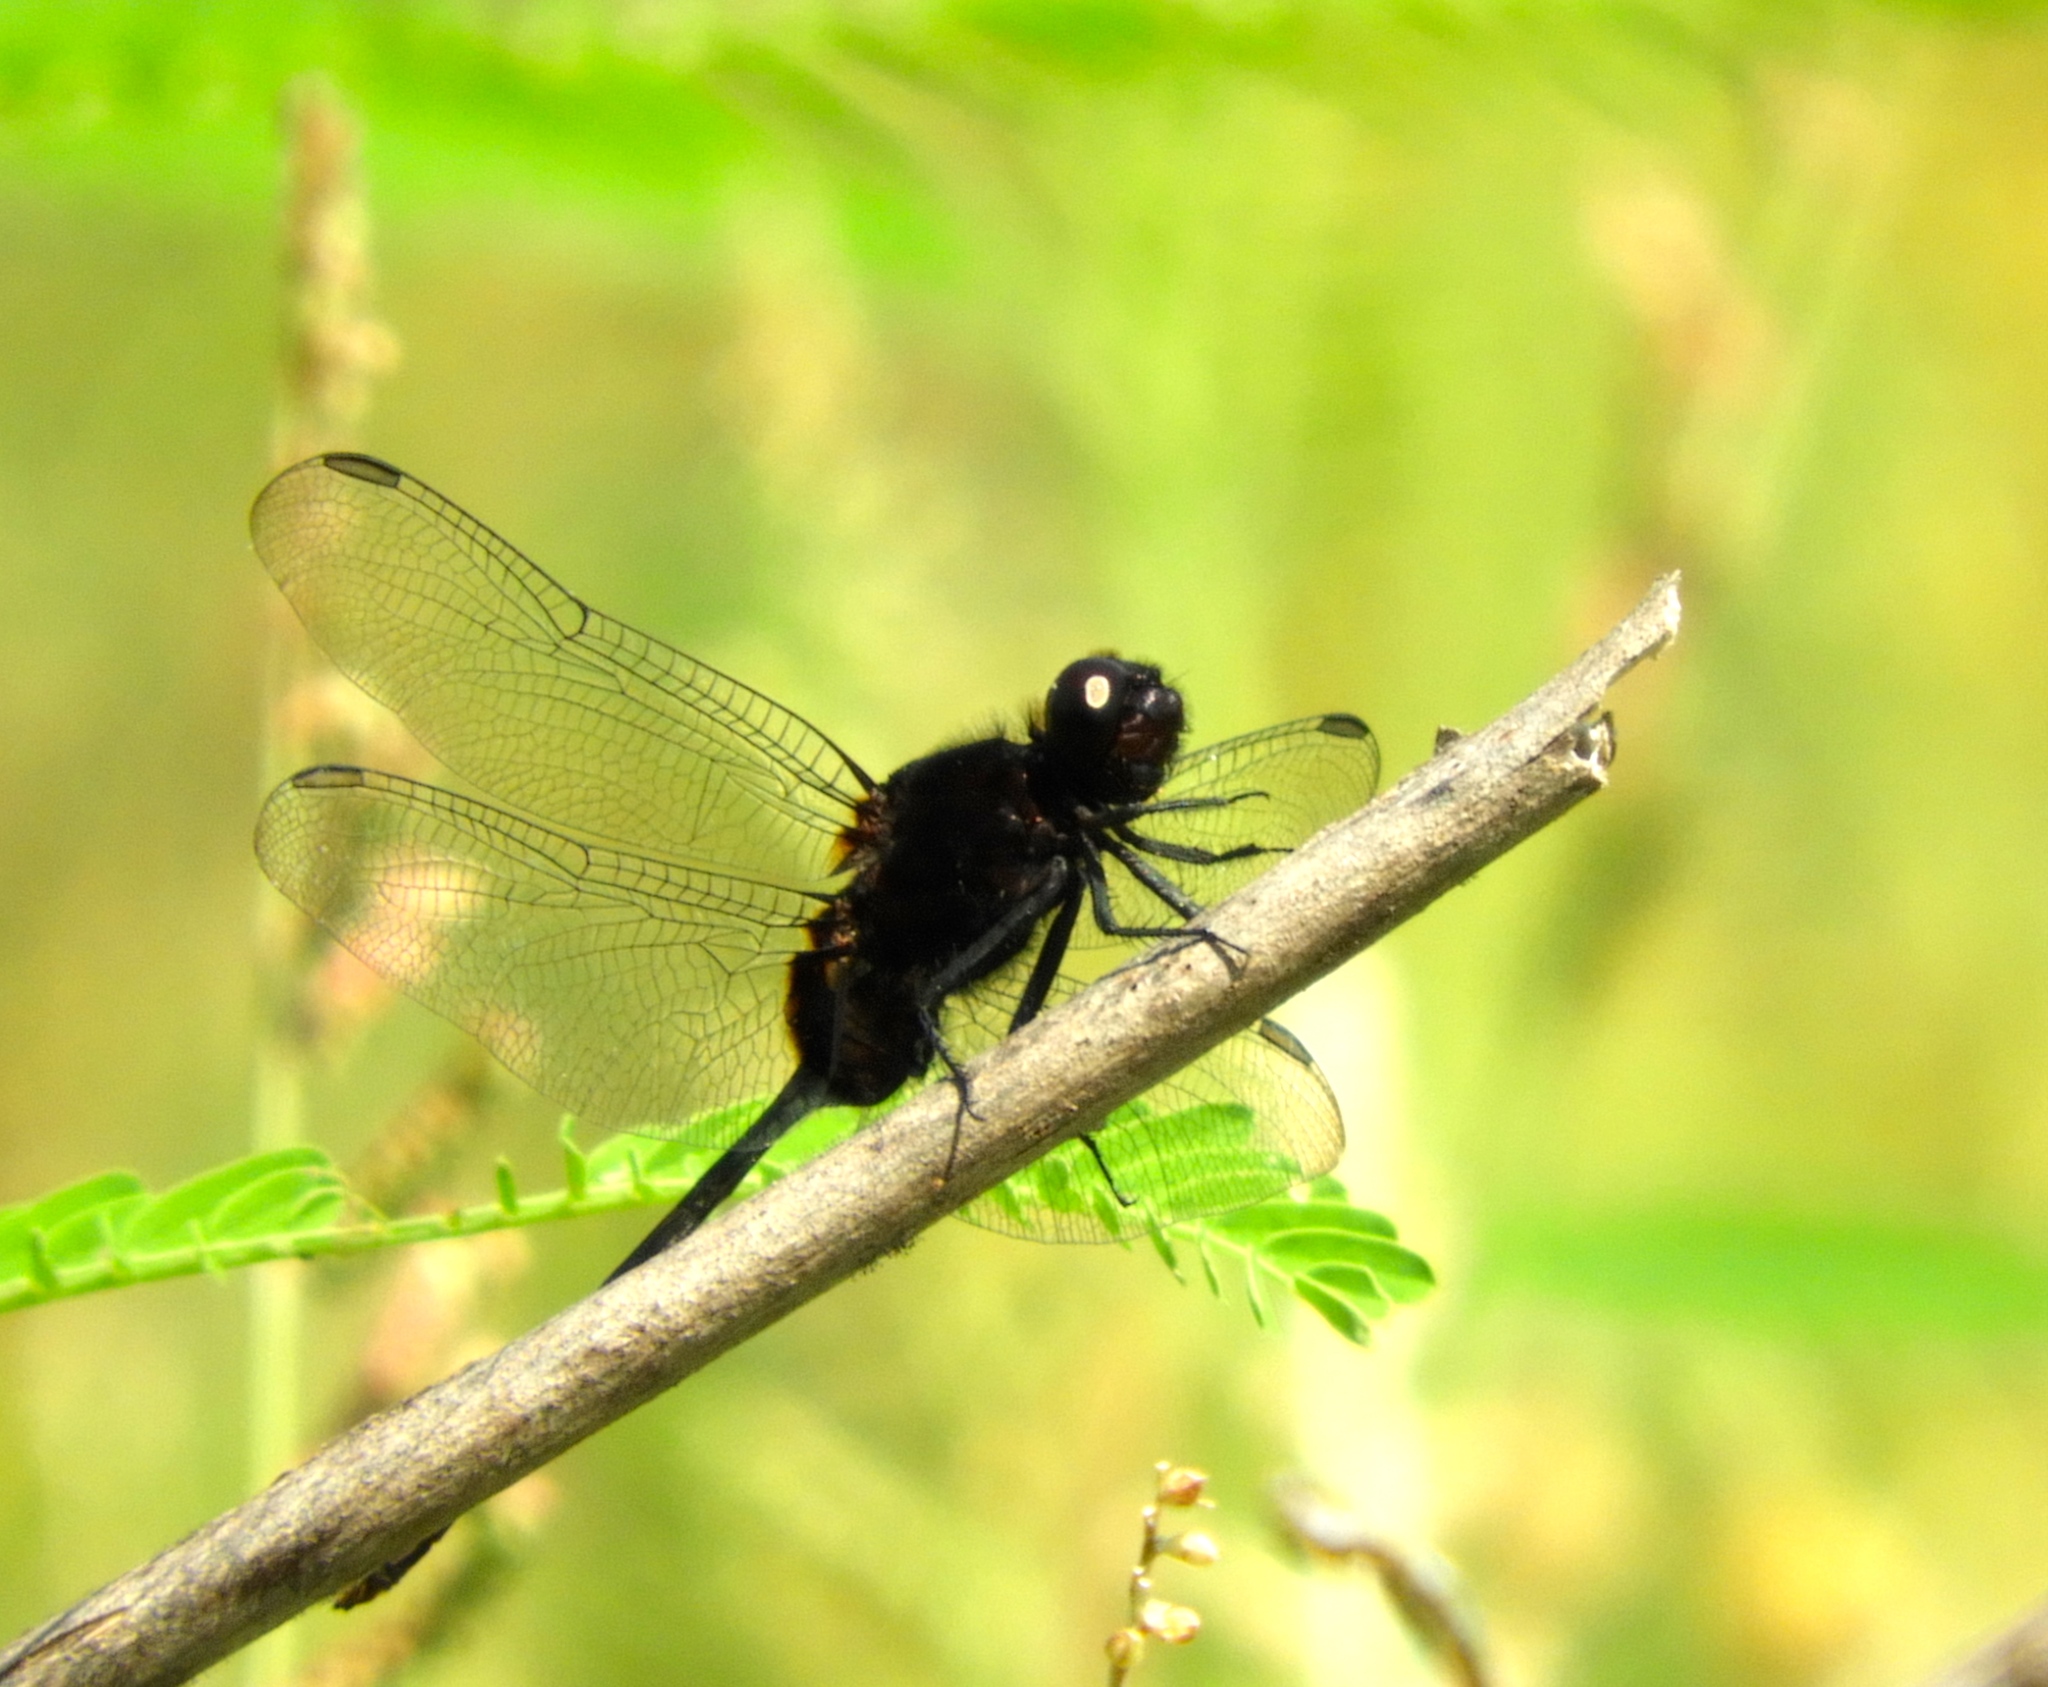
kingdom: Animalia
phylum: Arthropoda
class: Insecta
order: Odonata
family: Libellulidae
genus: Erythemis
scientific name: Erythemis plebeja
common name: Pin-tailed pondhawk
